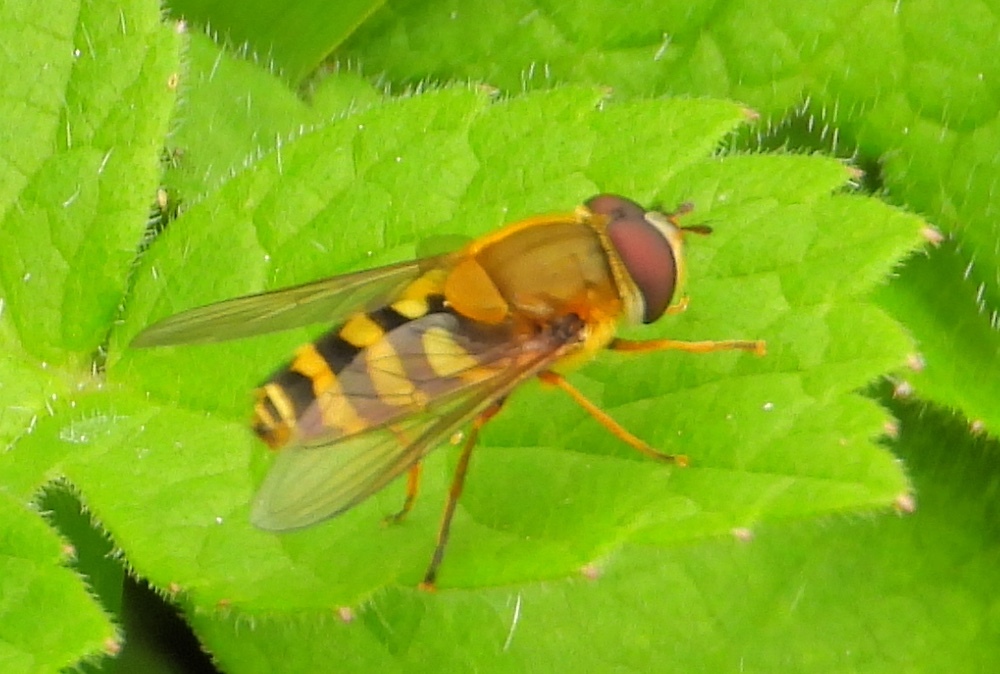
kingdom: Animalia
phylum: Arthropoda
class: Insecta
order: Diptera
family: Syrphidae
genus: Syrphus
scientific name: Syrphus
